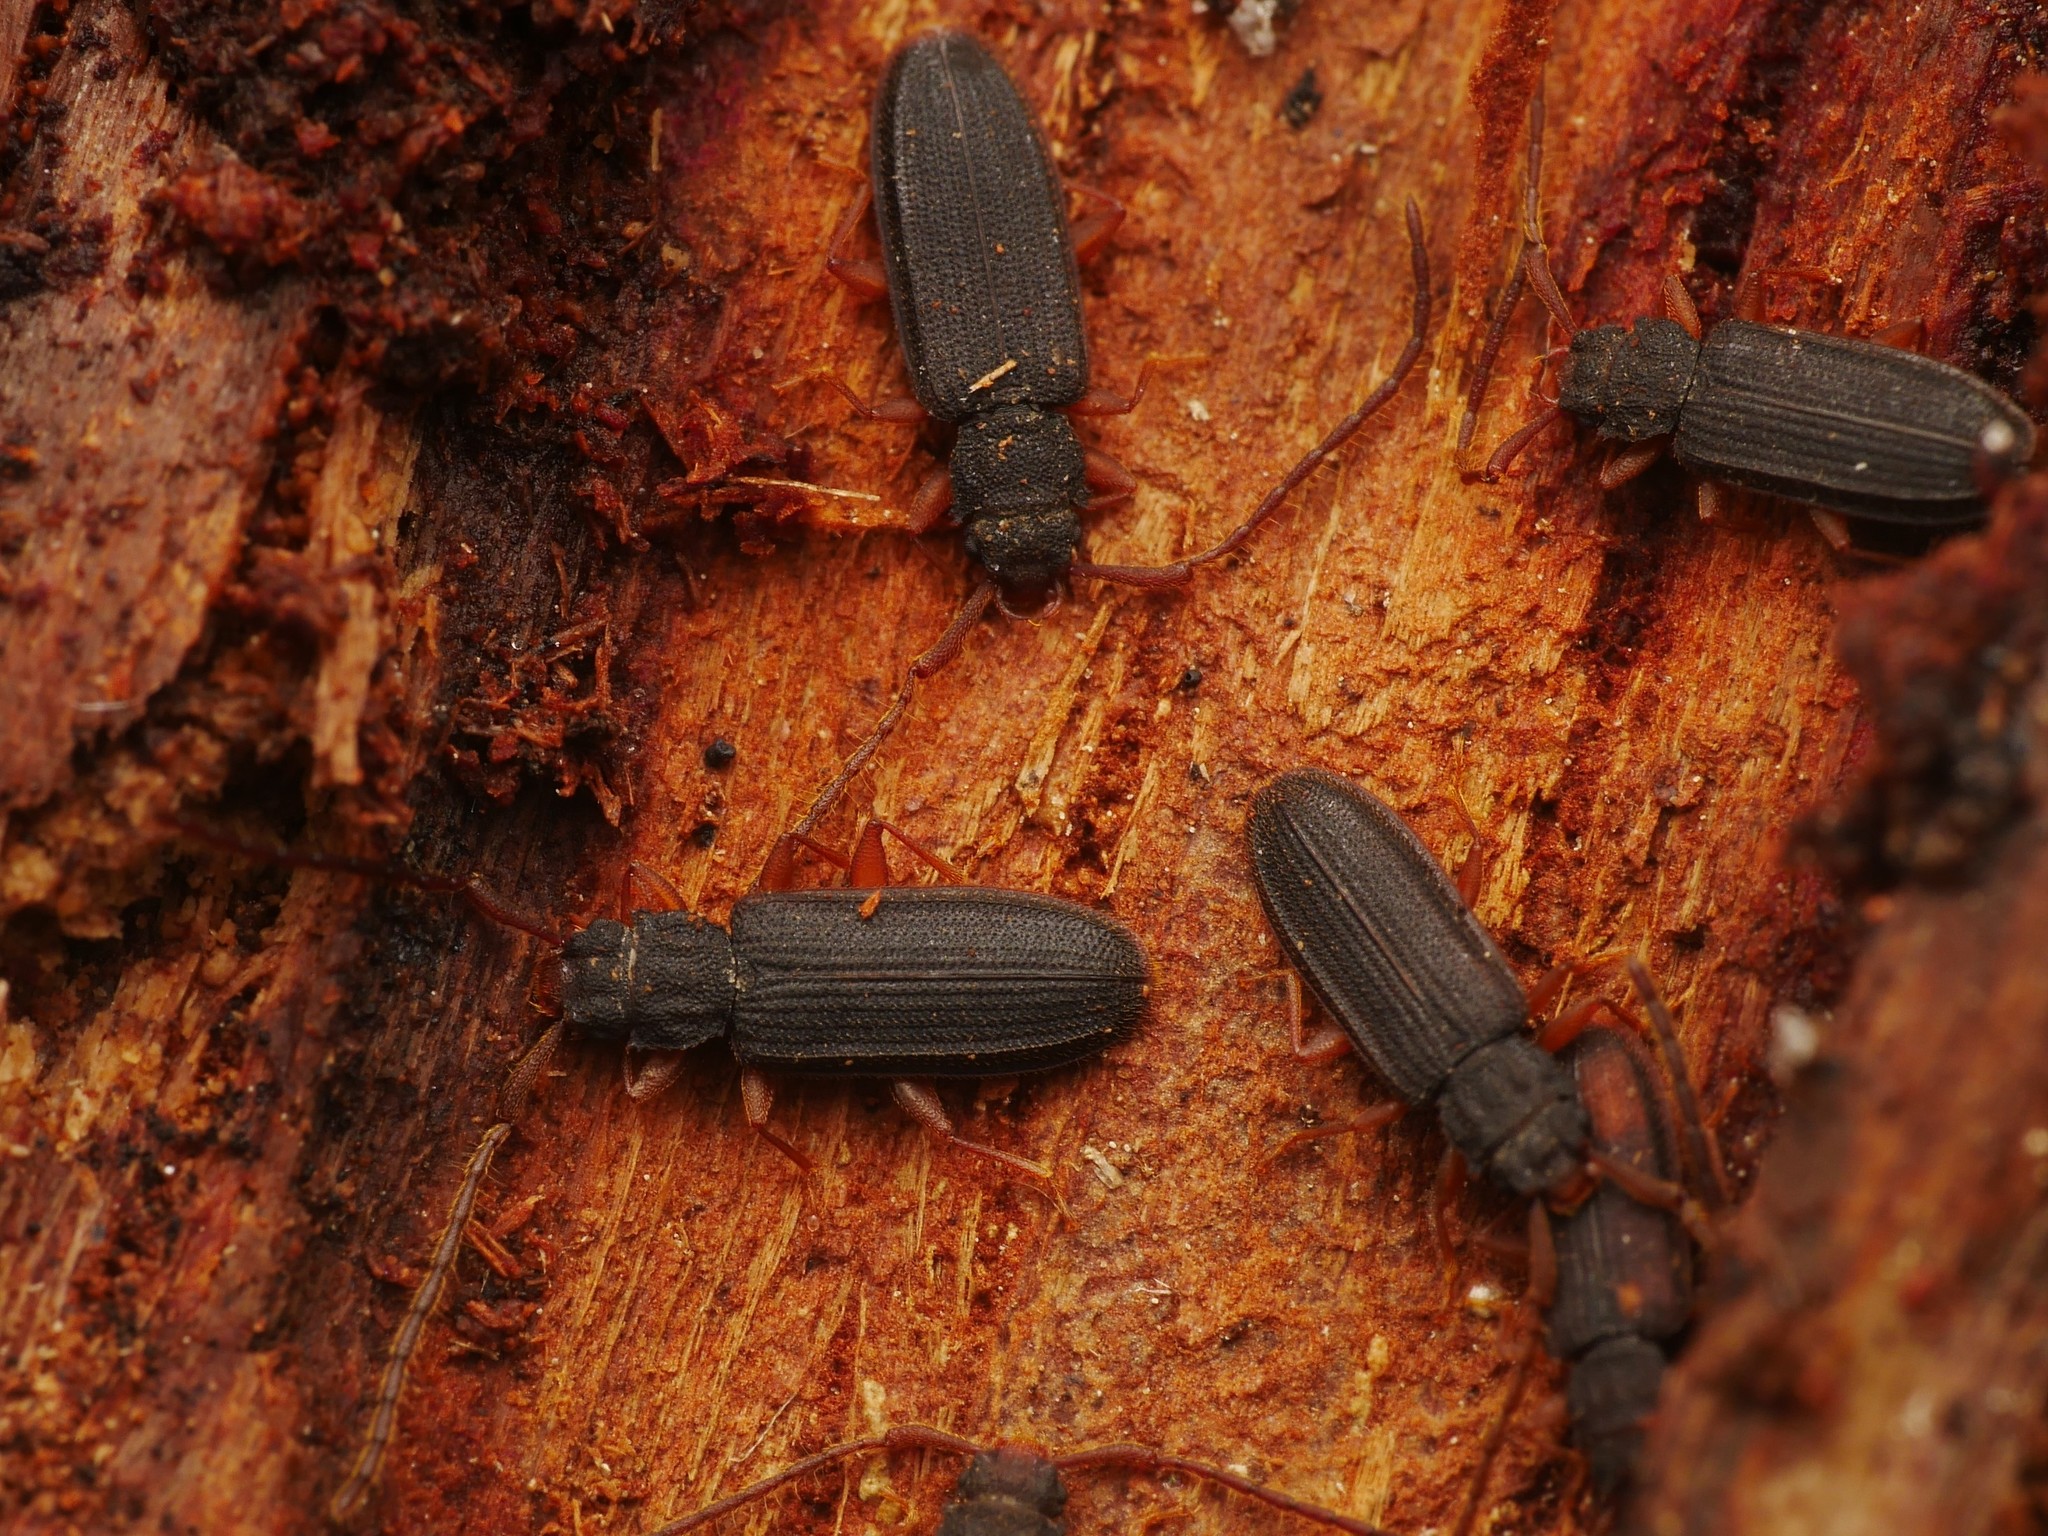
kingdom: Animalia
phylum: Arthropoda
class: Insecta
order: Coleoptera
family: Silvanidae
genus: Uleiota
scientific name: Uleiota planatus
